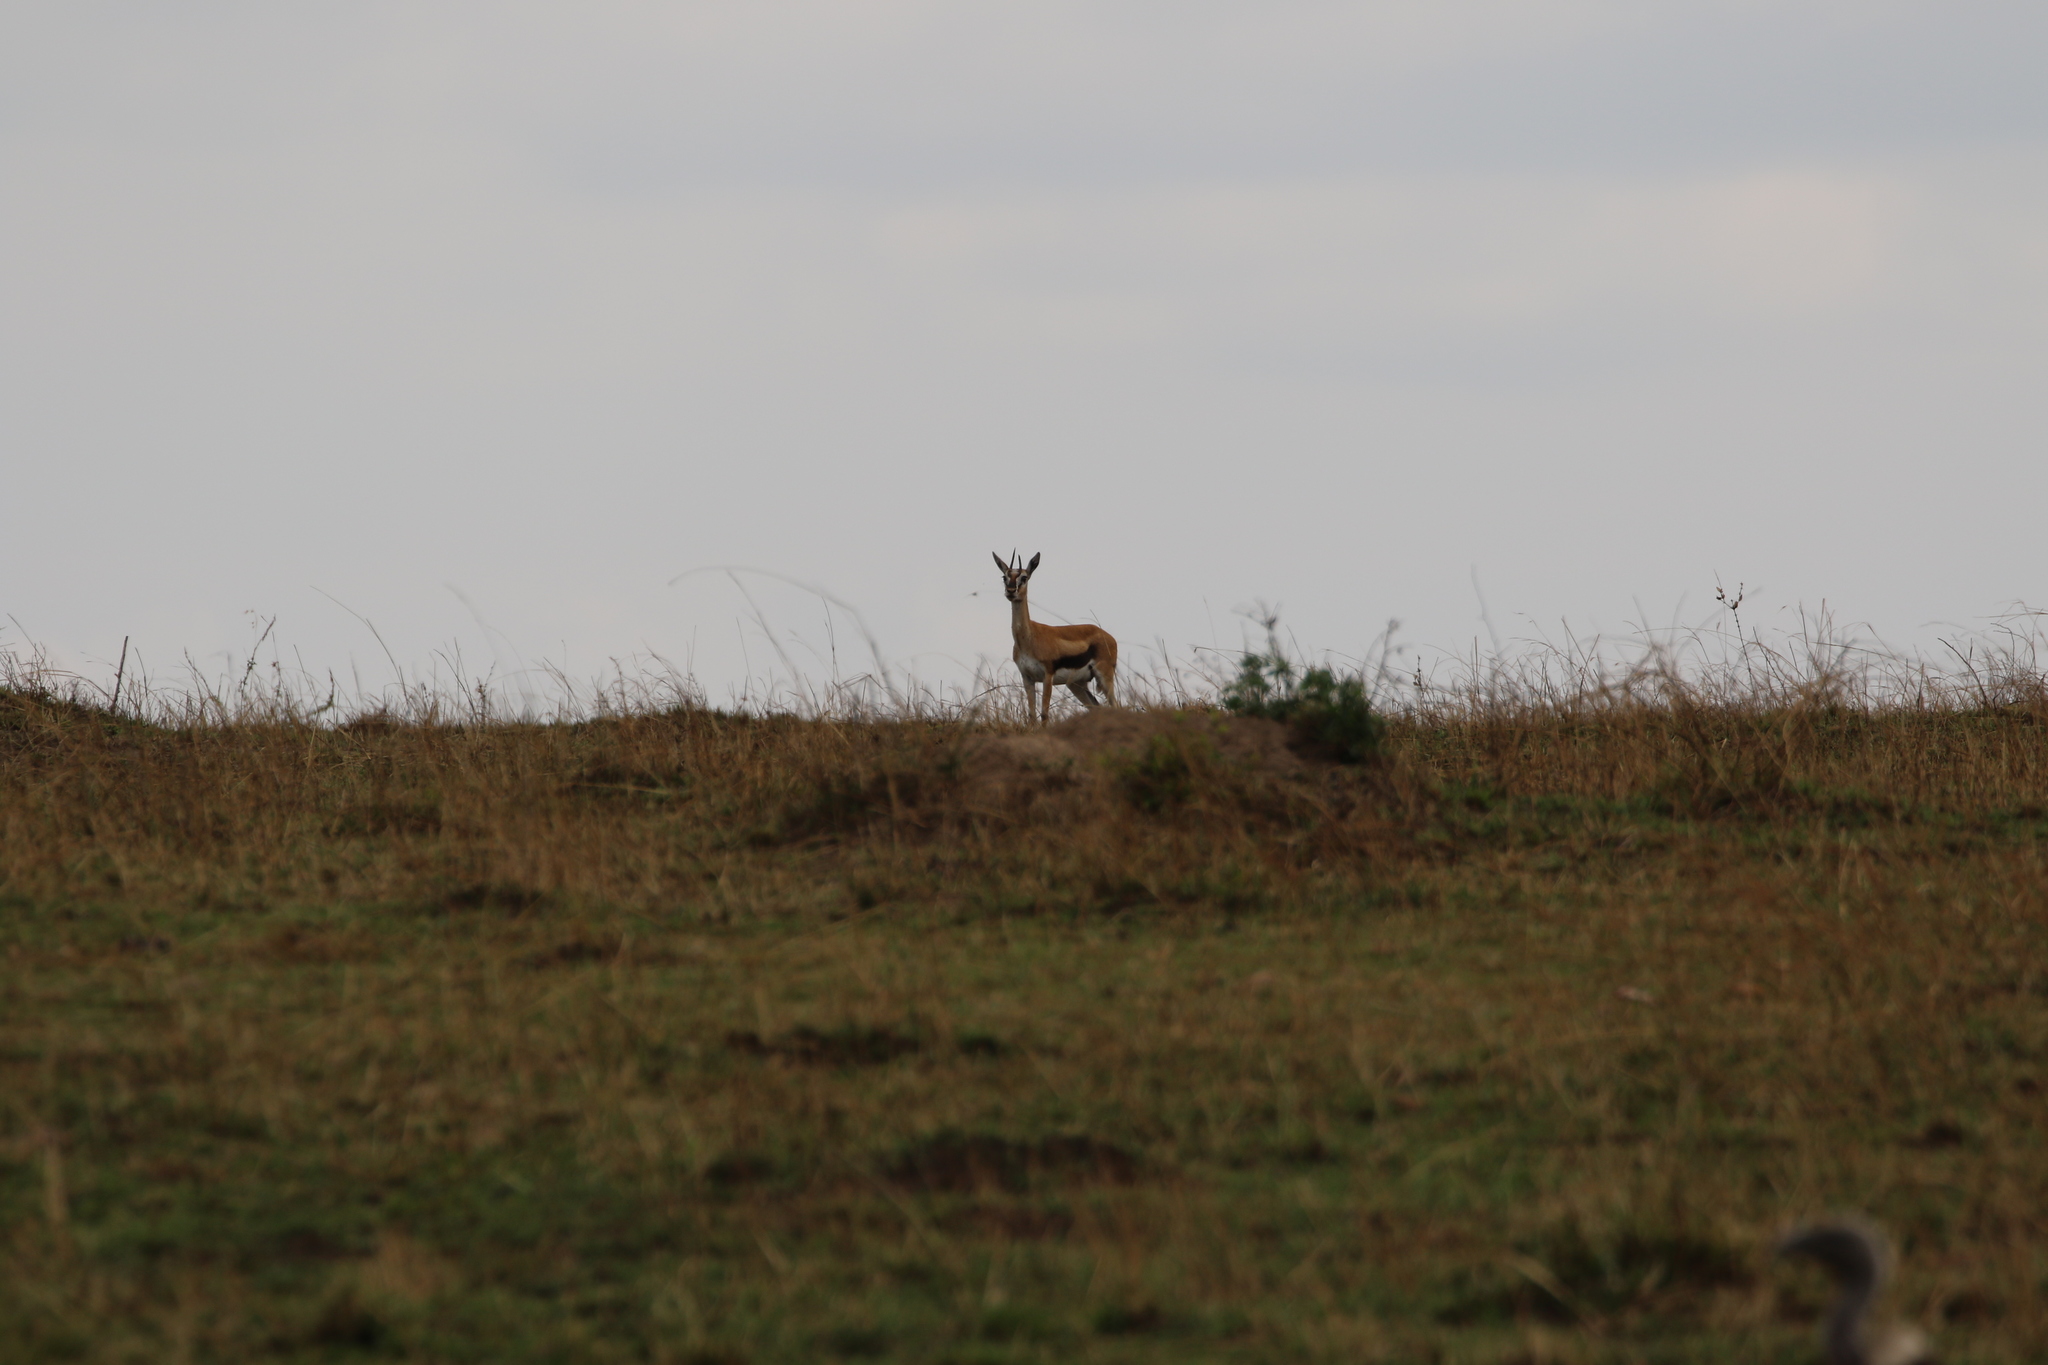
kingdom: Animalia
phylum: Chordata
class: Mammalia
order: Artiodactyla
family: Bovidae
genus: Eudorcas
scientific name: Eudorcas thomsonii
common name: Thomson's gazelle
